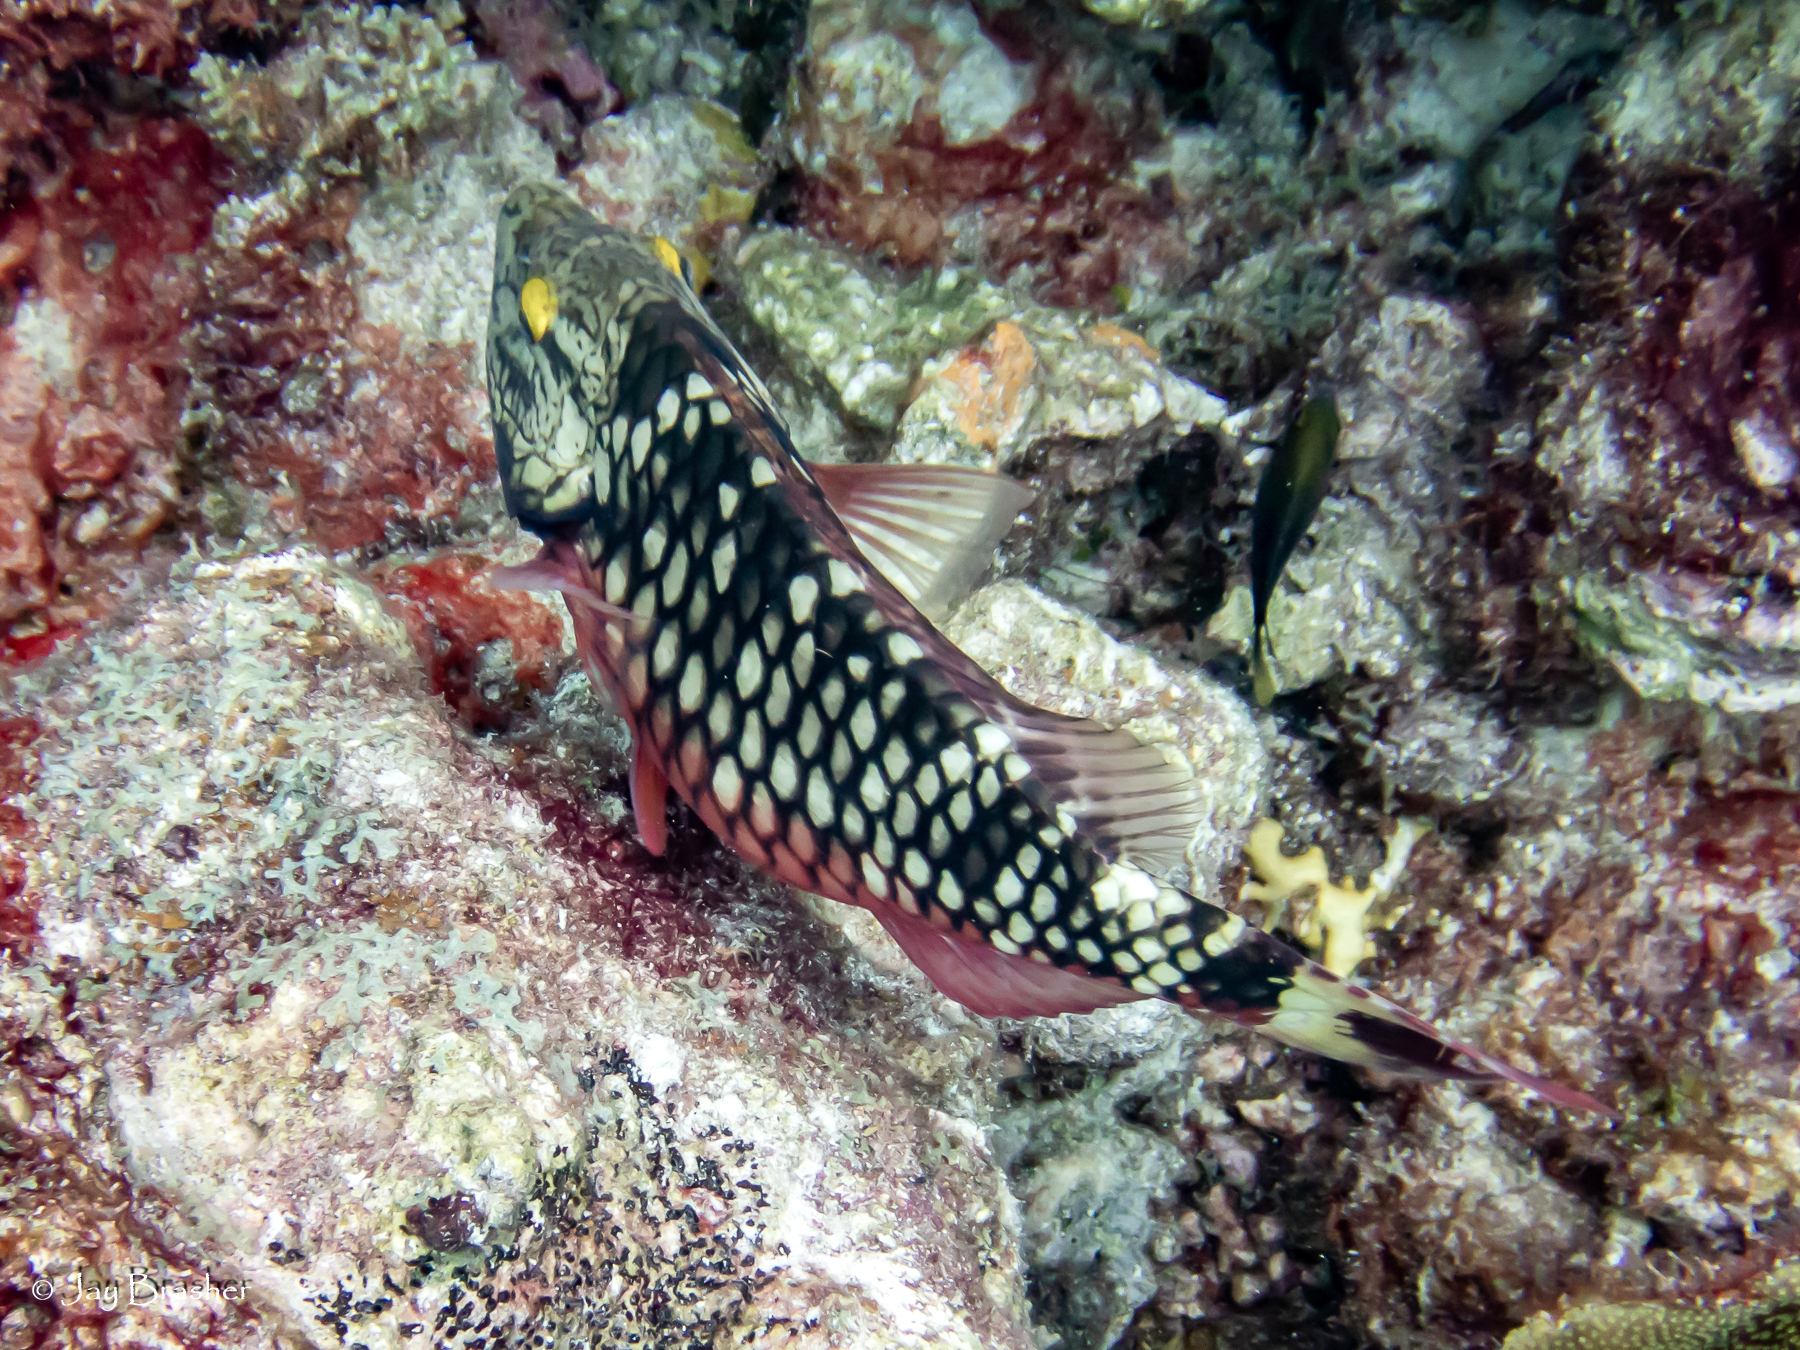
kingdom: Animalia
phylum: Chordata
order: Perciformes
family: Scaridae
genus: Sparisoma
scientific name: Sparisoma viride
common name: Stoplight parrotfish
